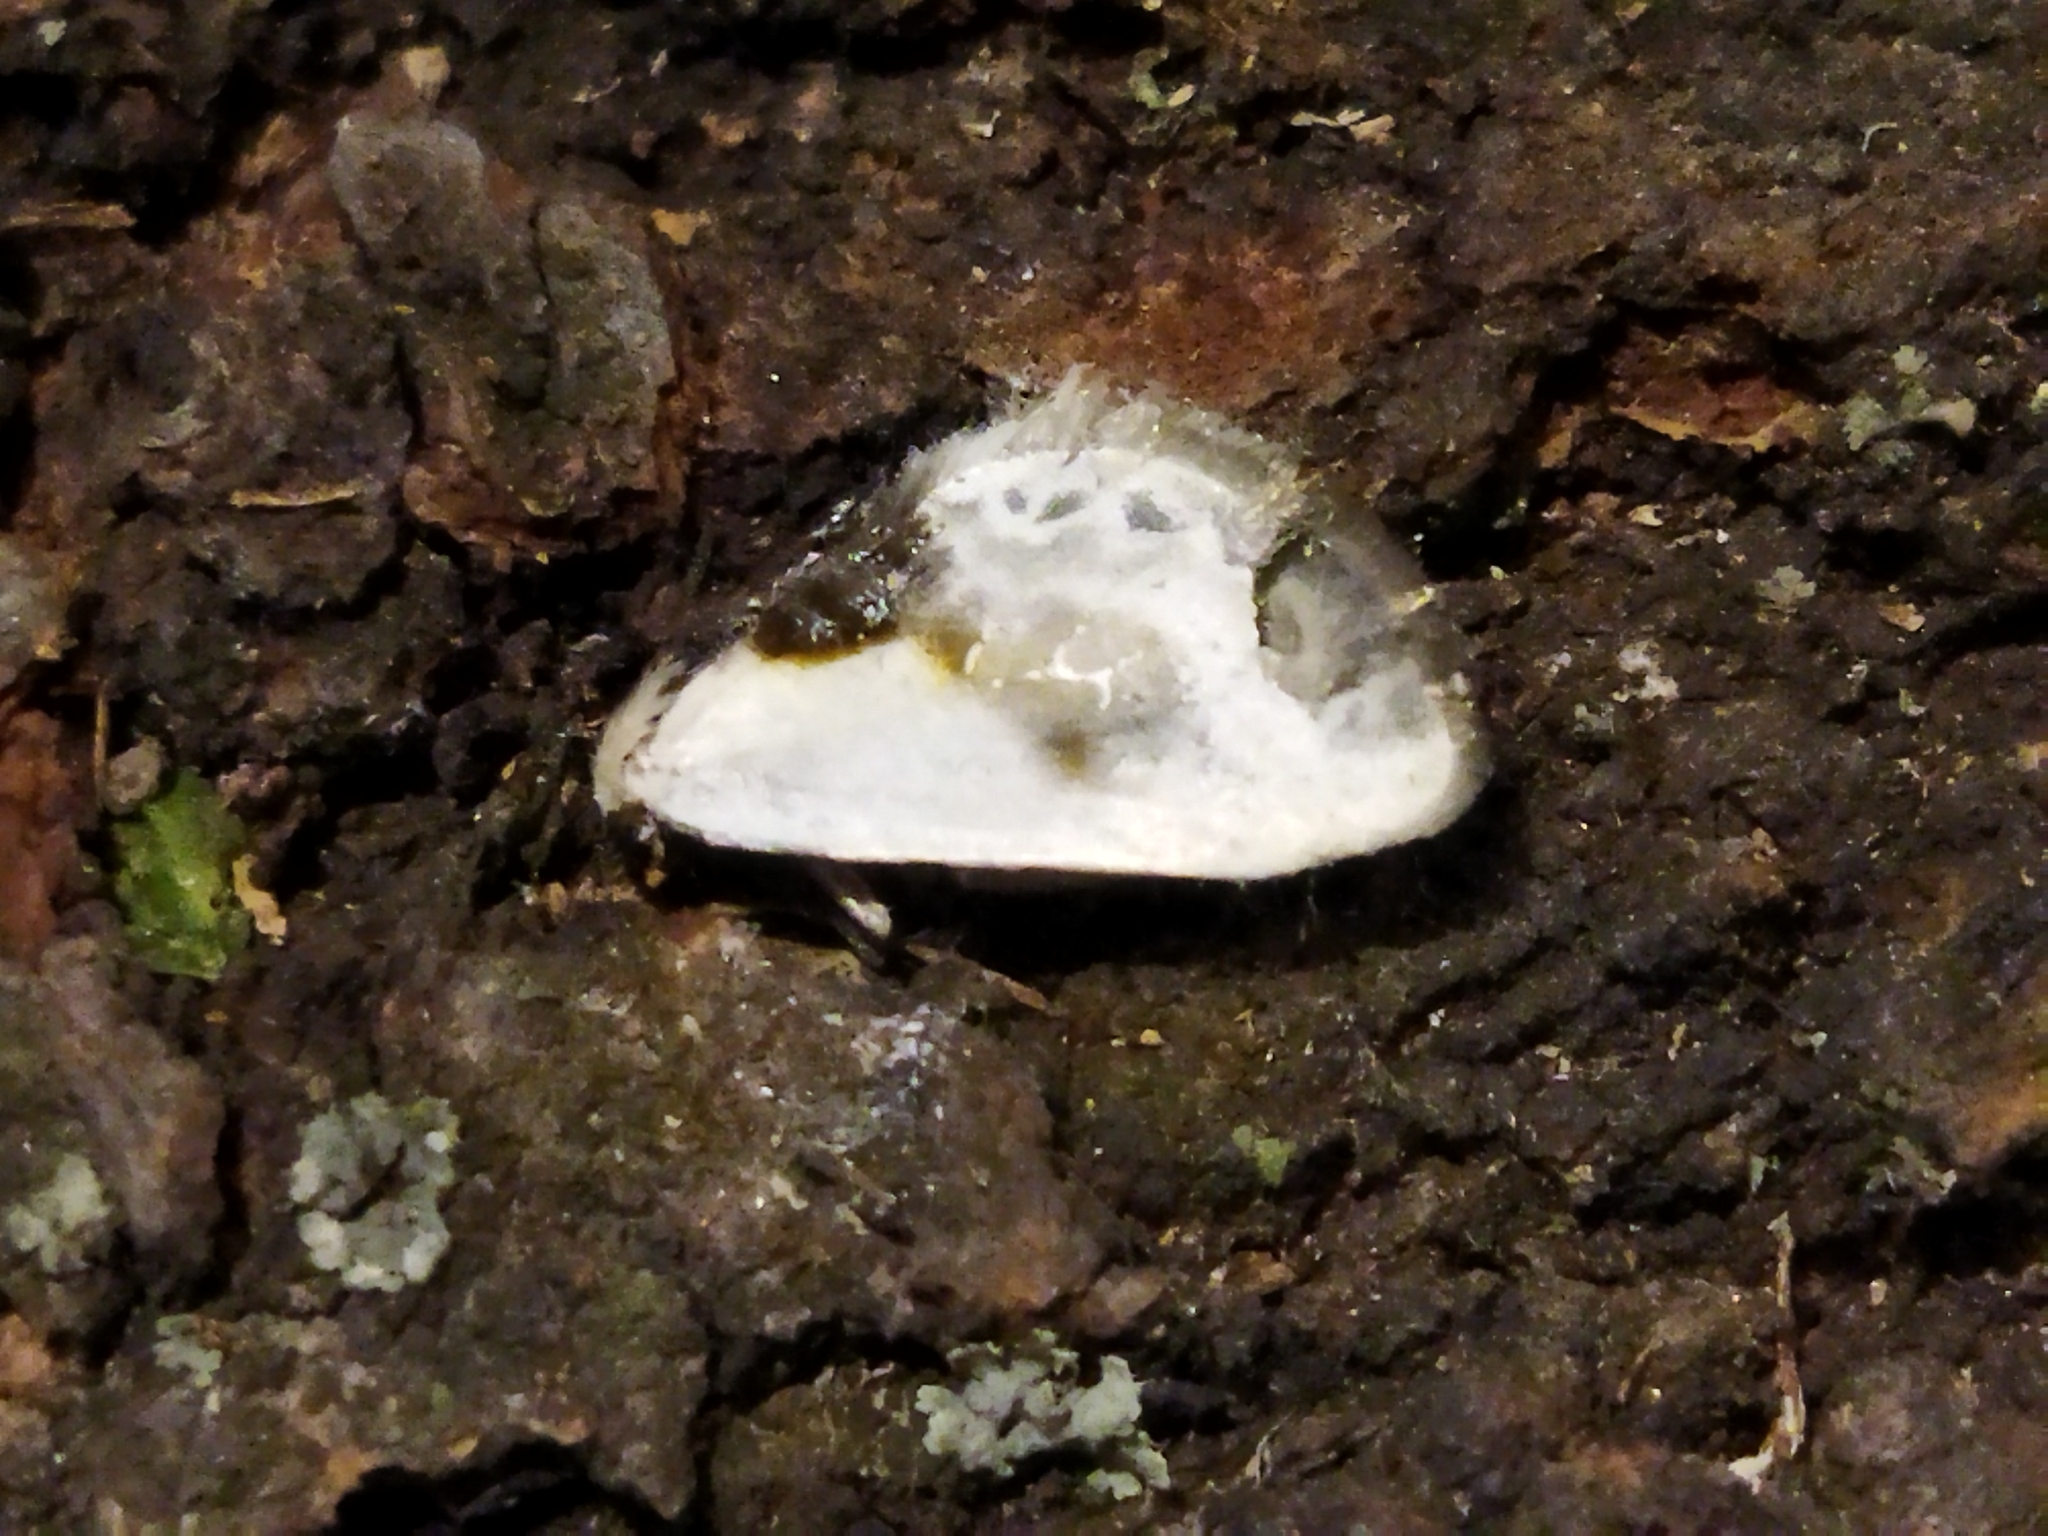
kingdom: Animalia
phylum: Arthropoda
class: Insecta
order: Lepidoptera
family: Drepanidae
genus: Cilix
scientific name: Cilix glaucata
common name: Chinese character
